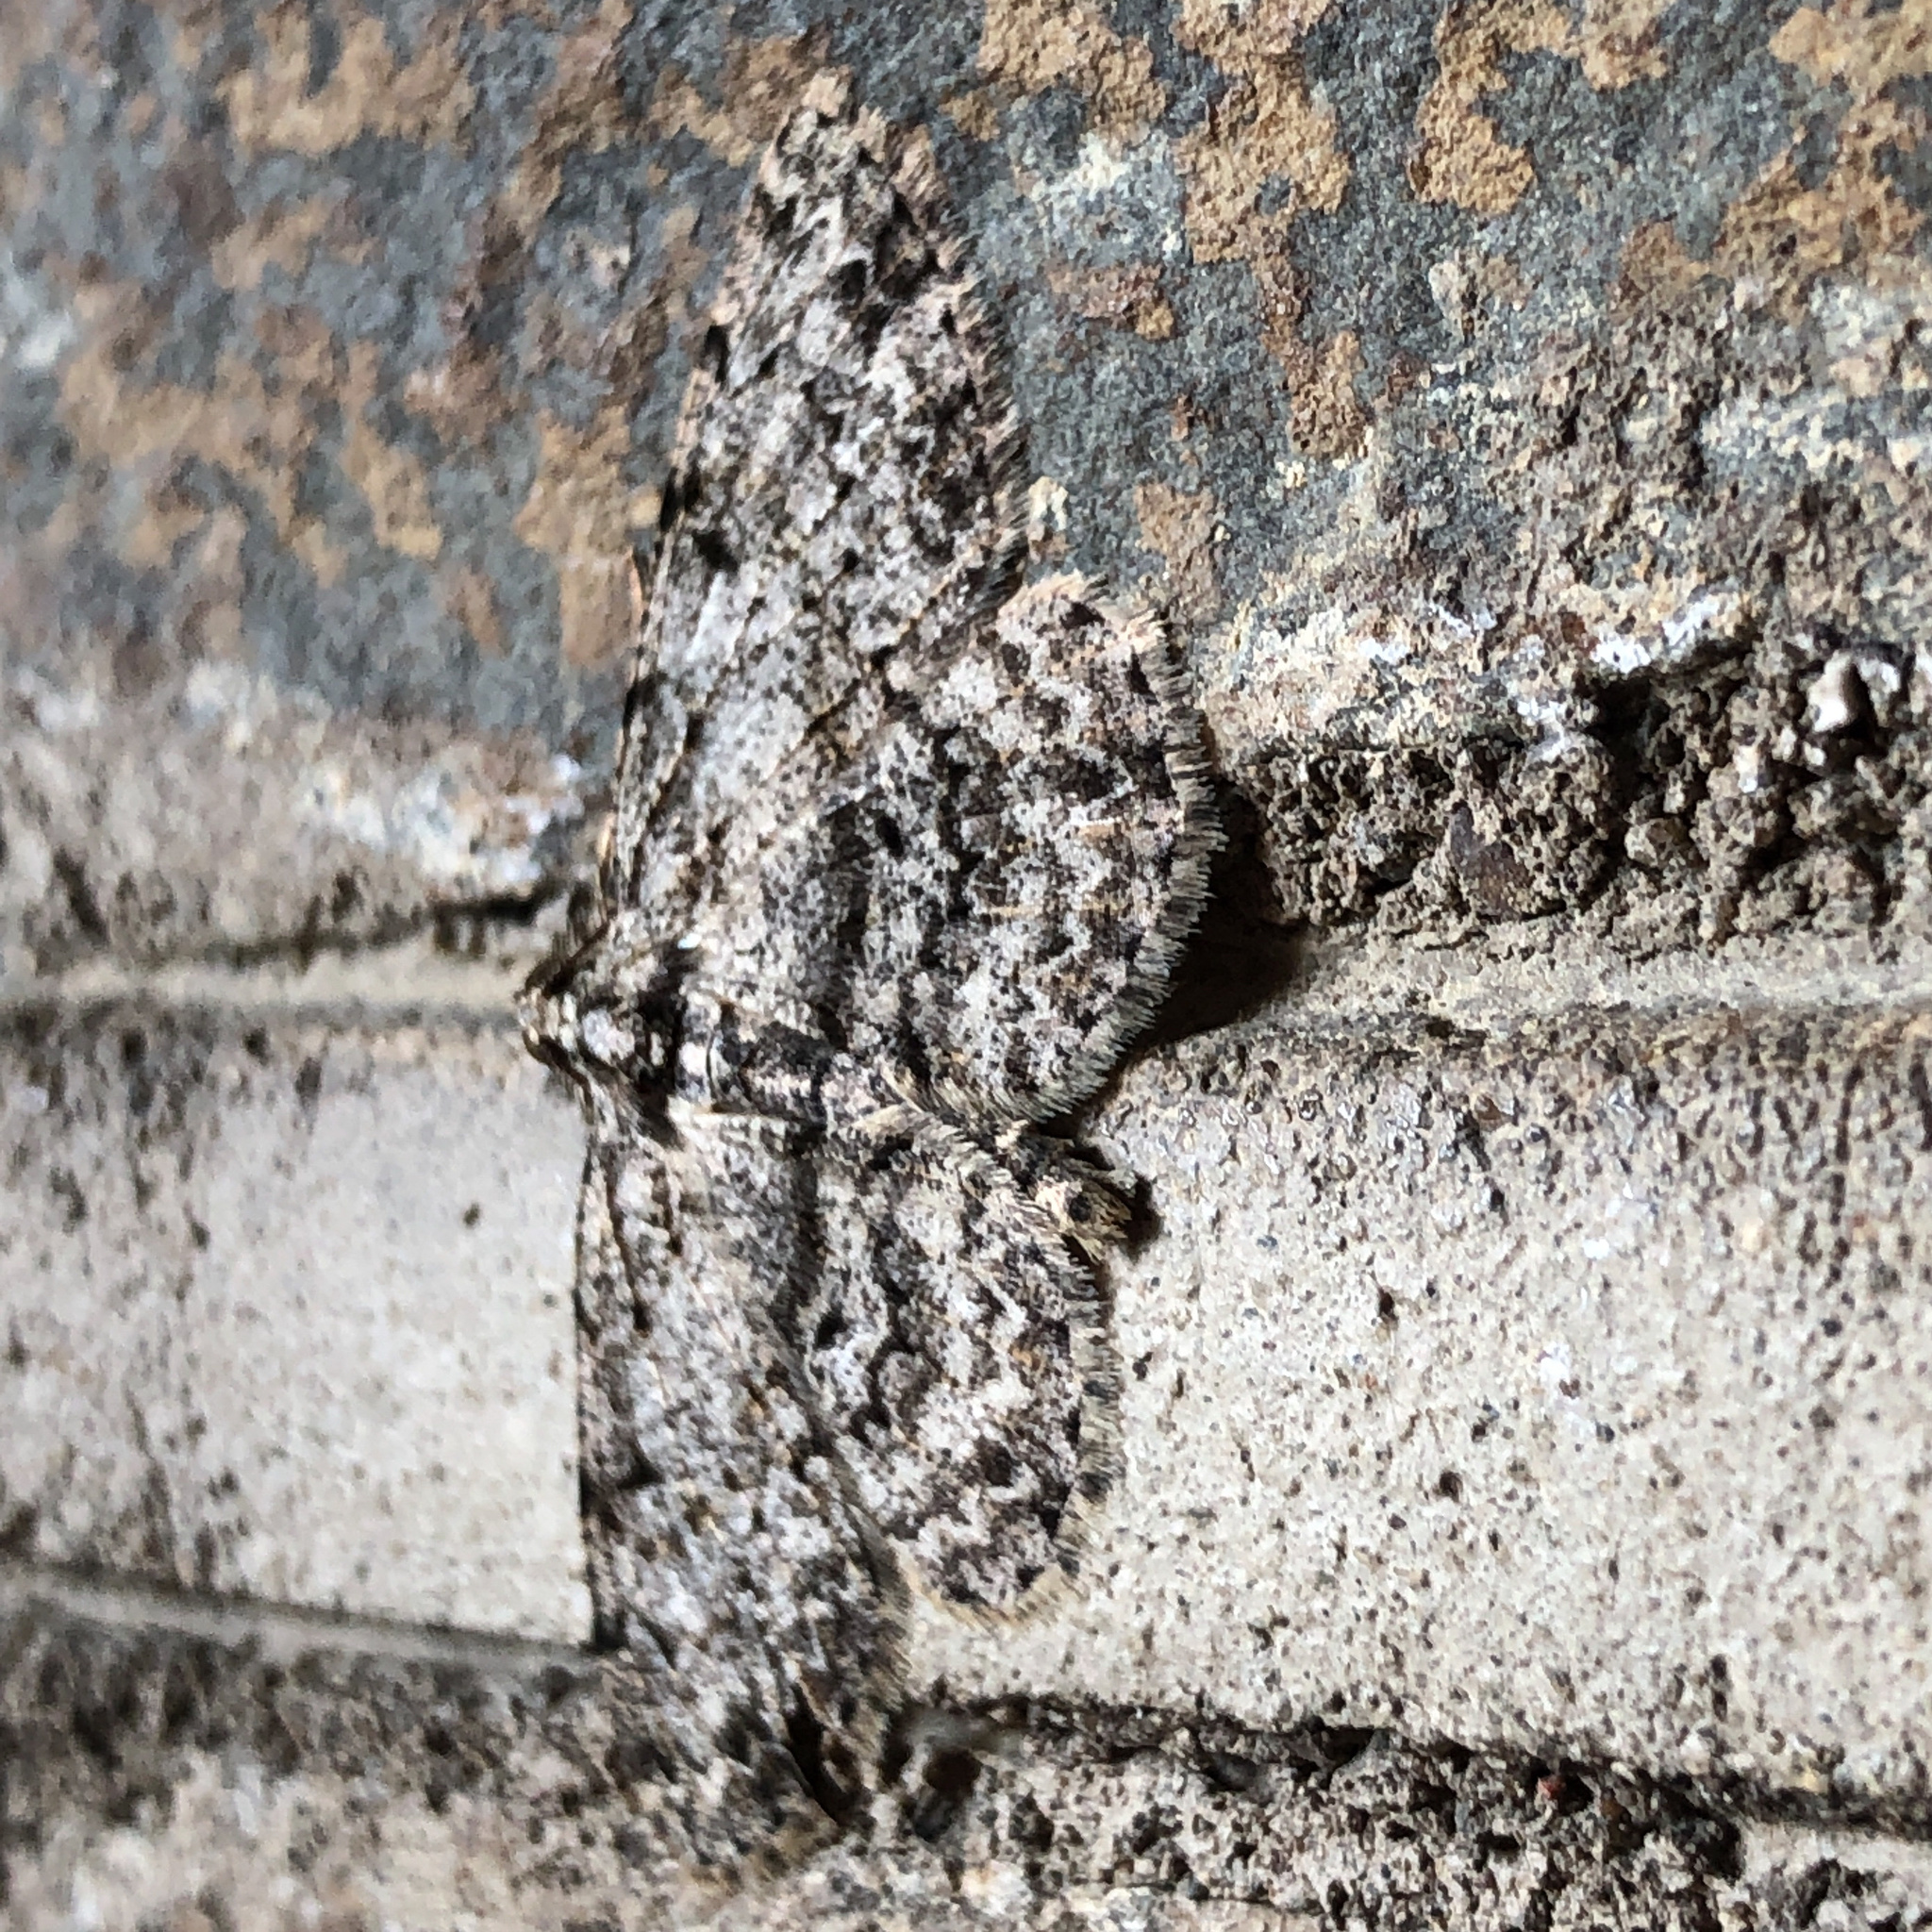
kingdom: Animalia
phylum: Arthropoda
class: Insecta
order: Lepidoptera
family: Geometridae
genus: Protoboarmia
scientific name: Protoboarmia porcelaria
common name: Porcelain gray
